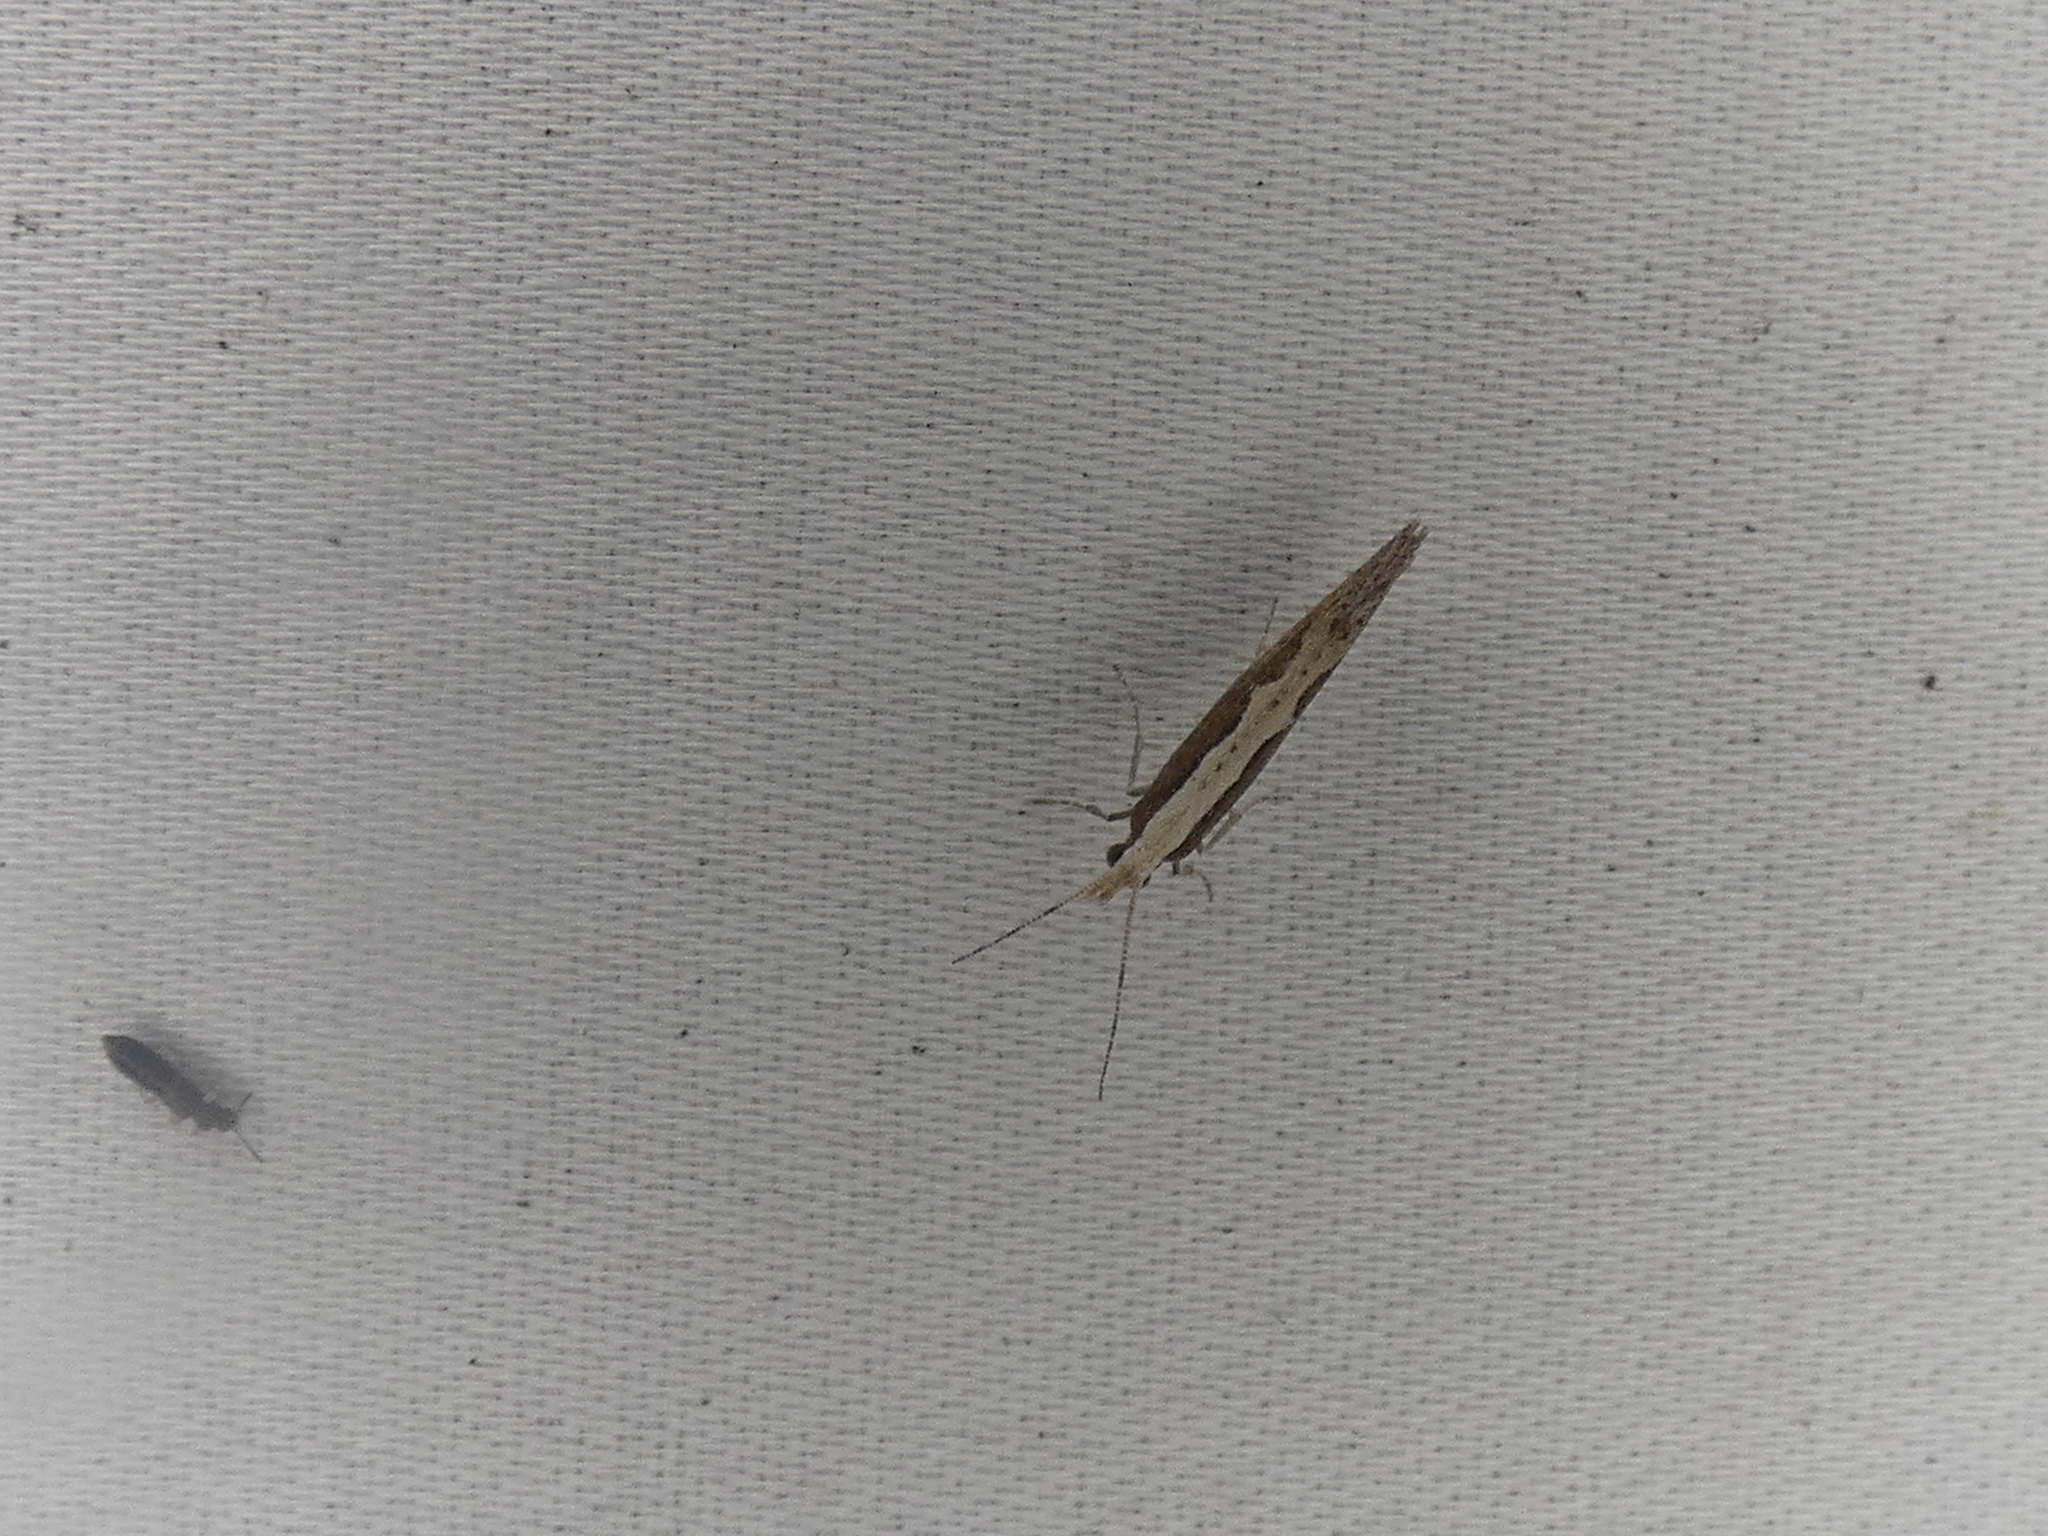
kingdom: Animalia
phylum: Arthropoda
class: Insecta
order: Lepidoptera
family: Plutellidae
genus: Plutella
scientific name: Plutella xylostella
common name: Diamond-back moth
